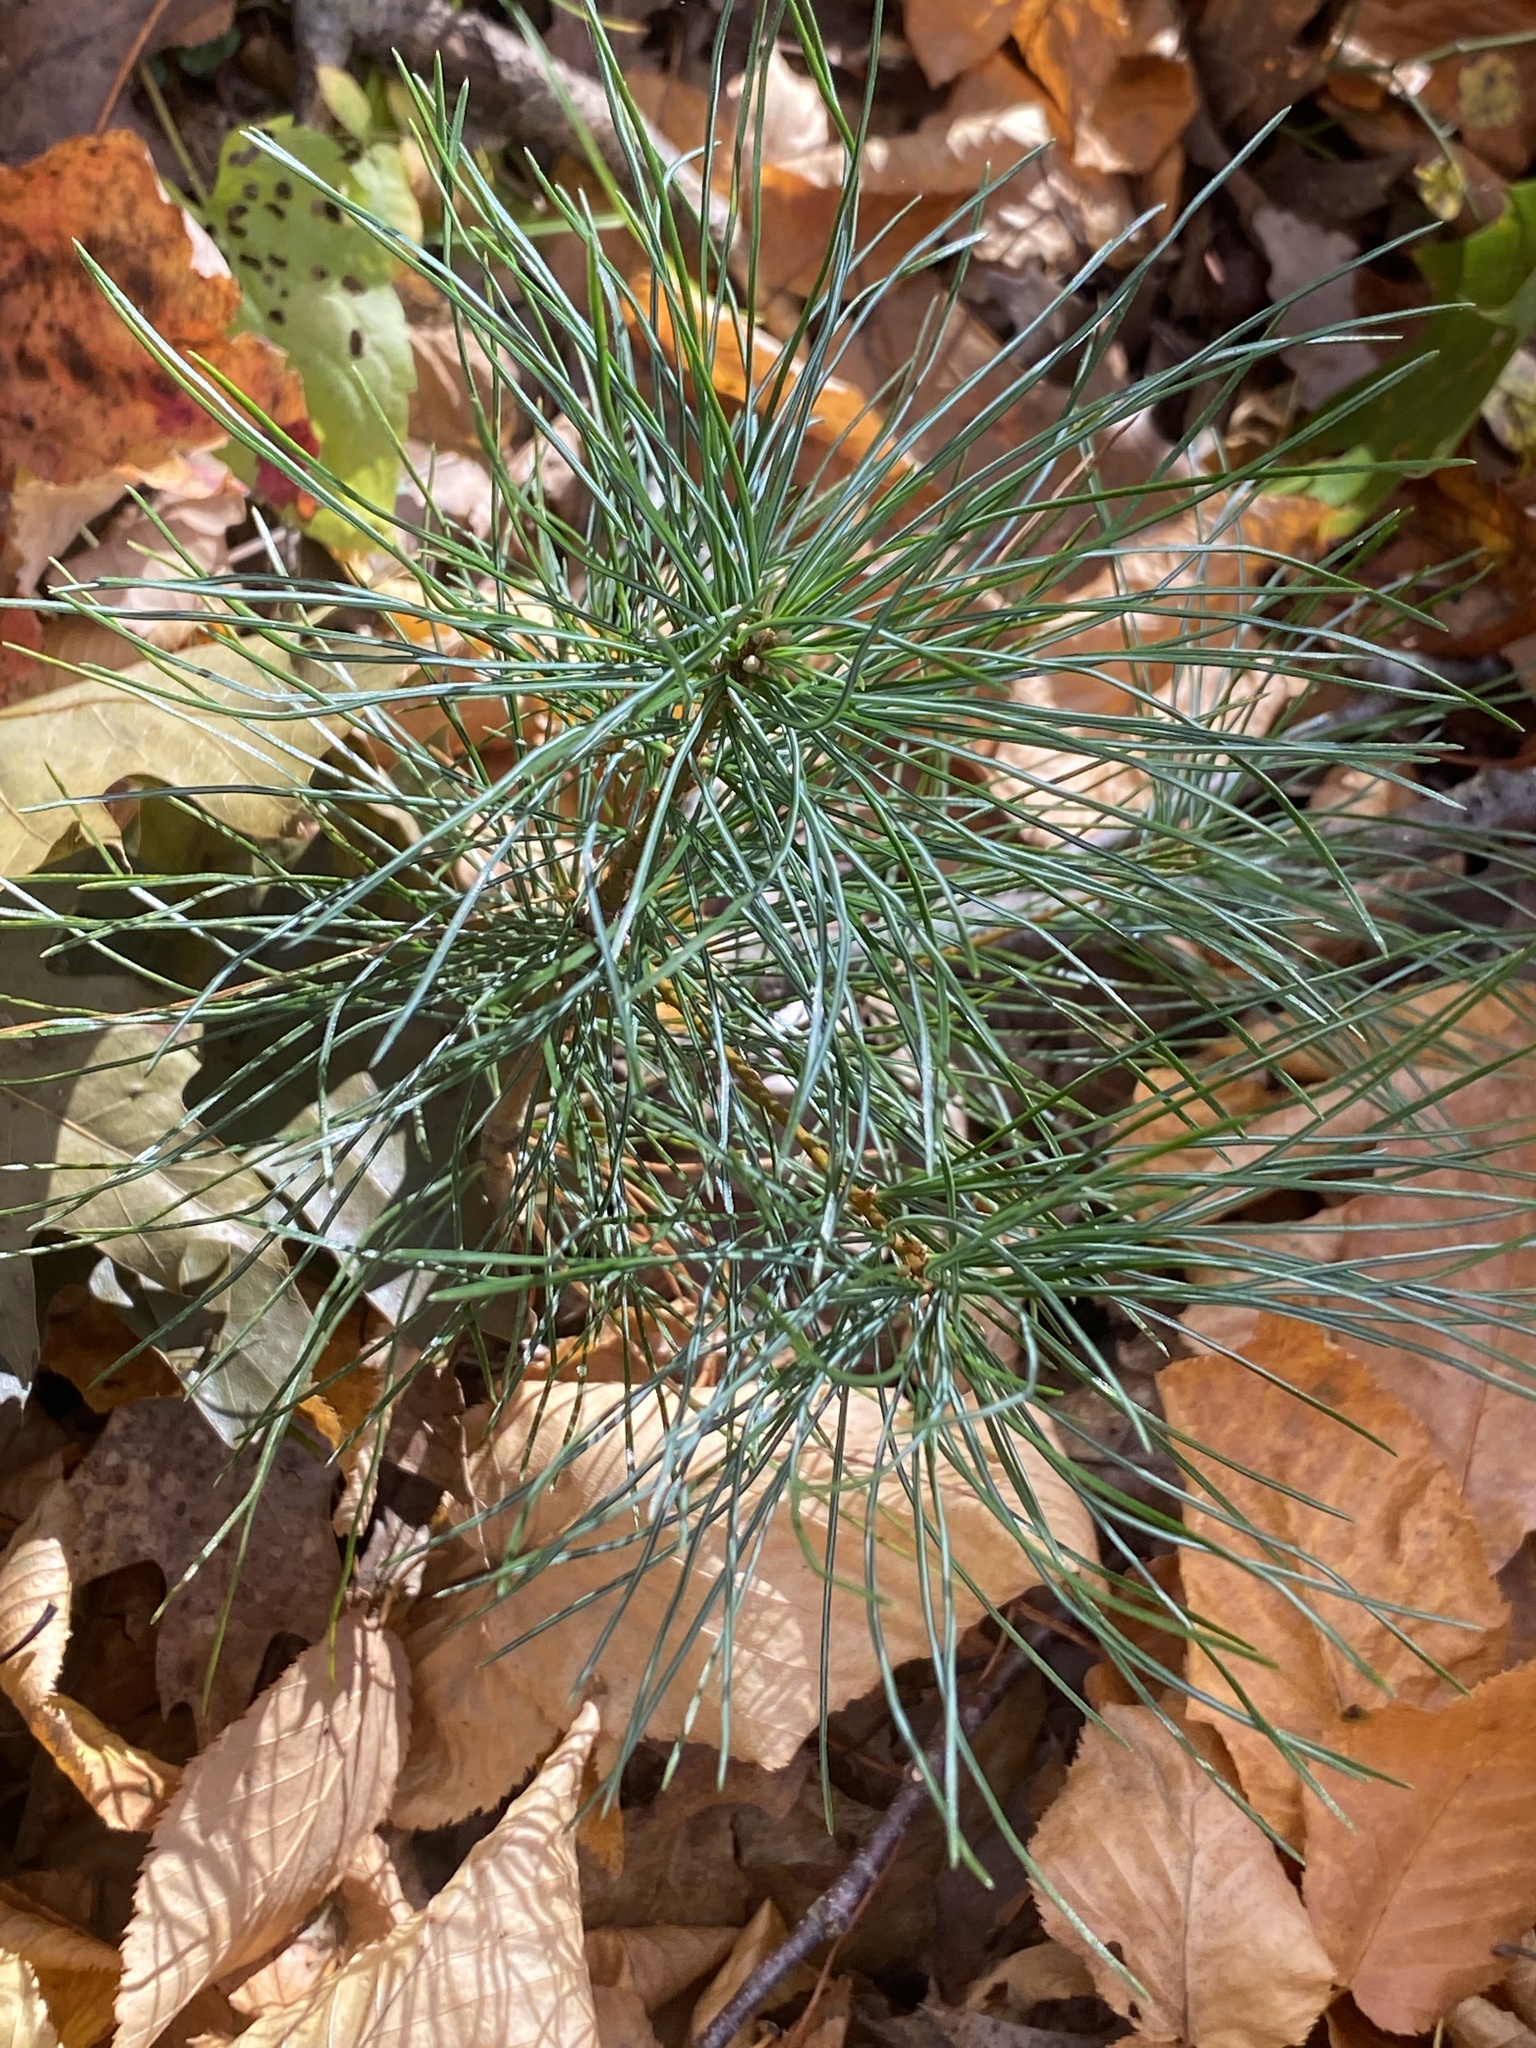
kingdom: Plantae
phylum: Tracheophyta
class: Pinopsida
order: Pinales
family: Pinaceae
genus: Pinus
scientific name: Pinus strobus
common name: Weymouth pine
